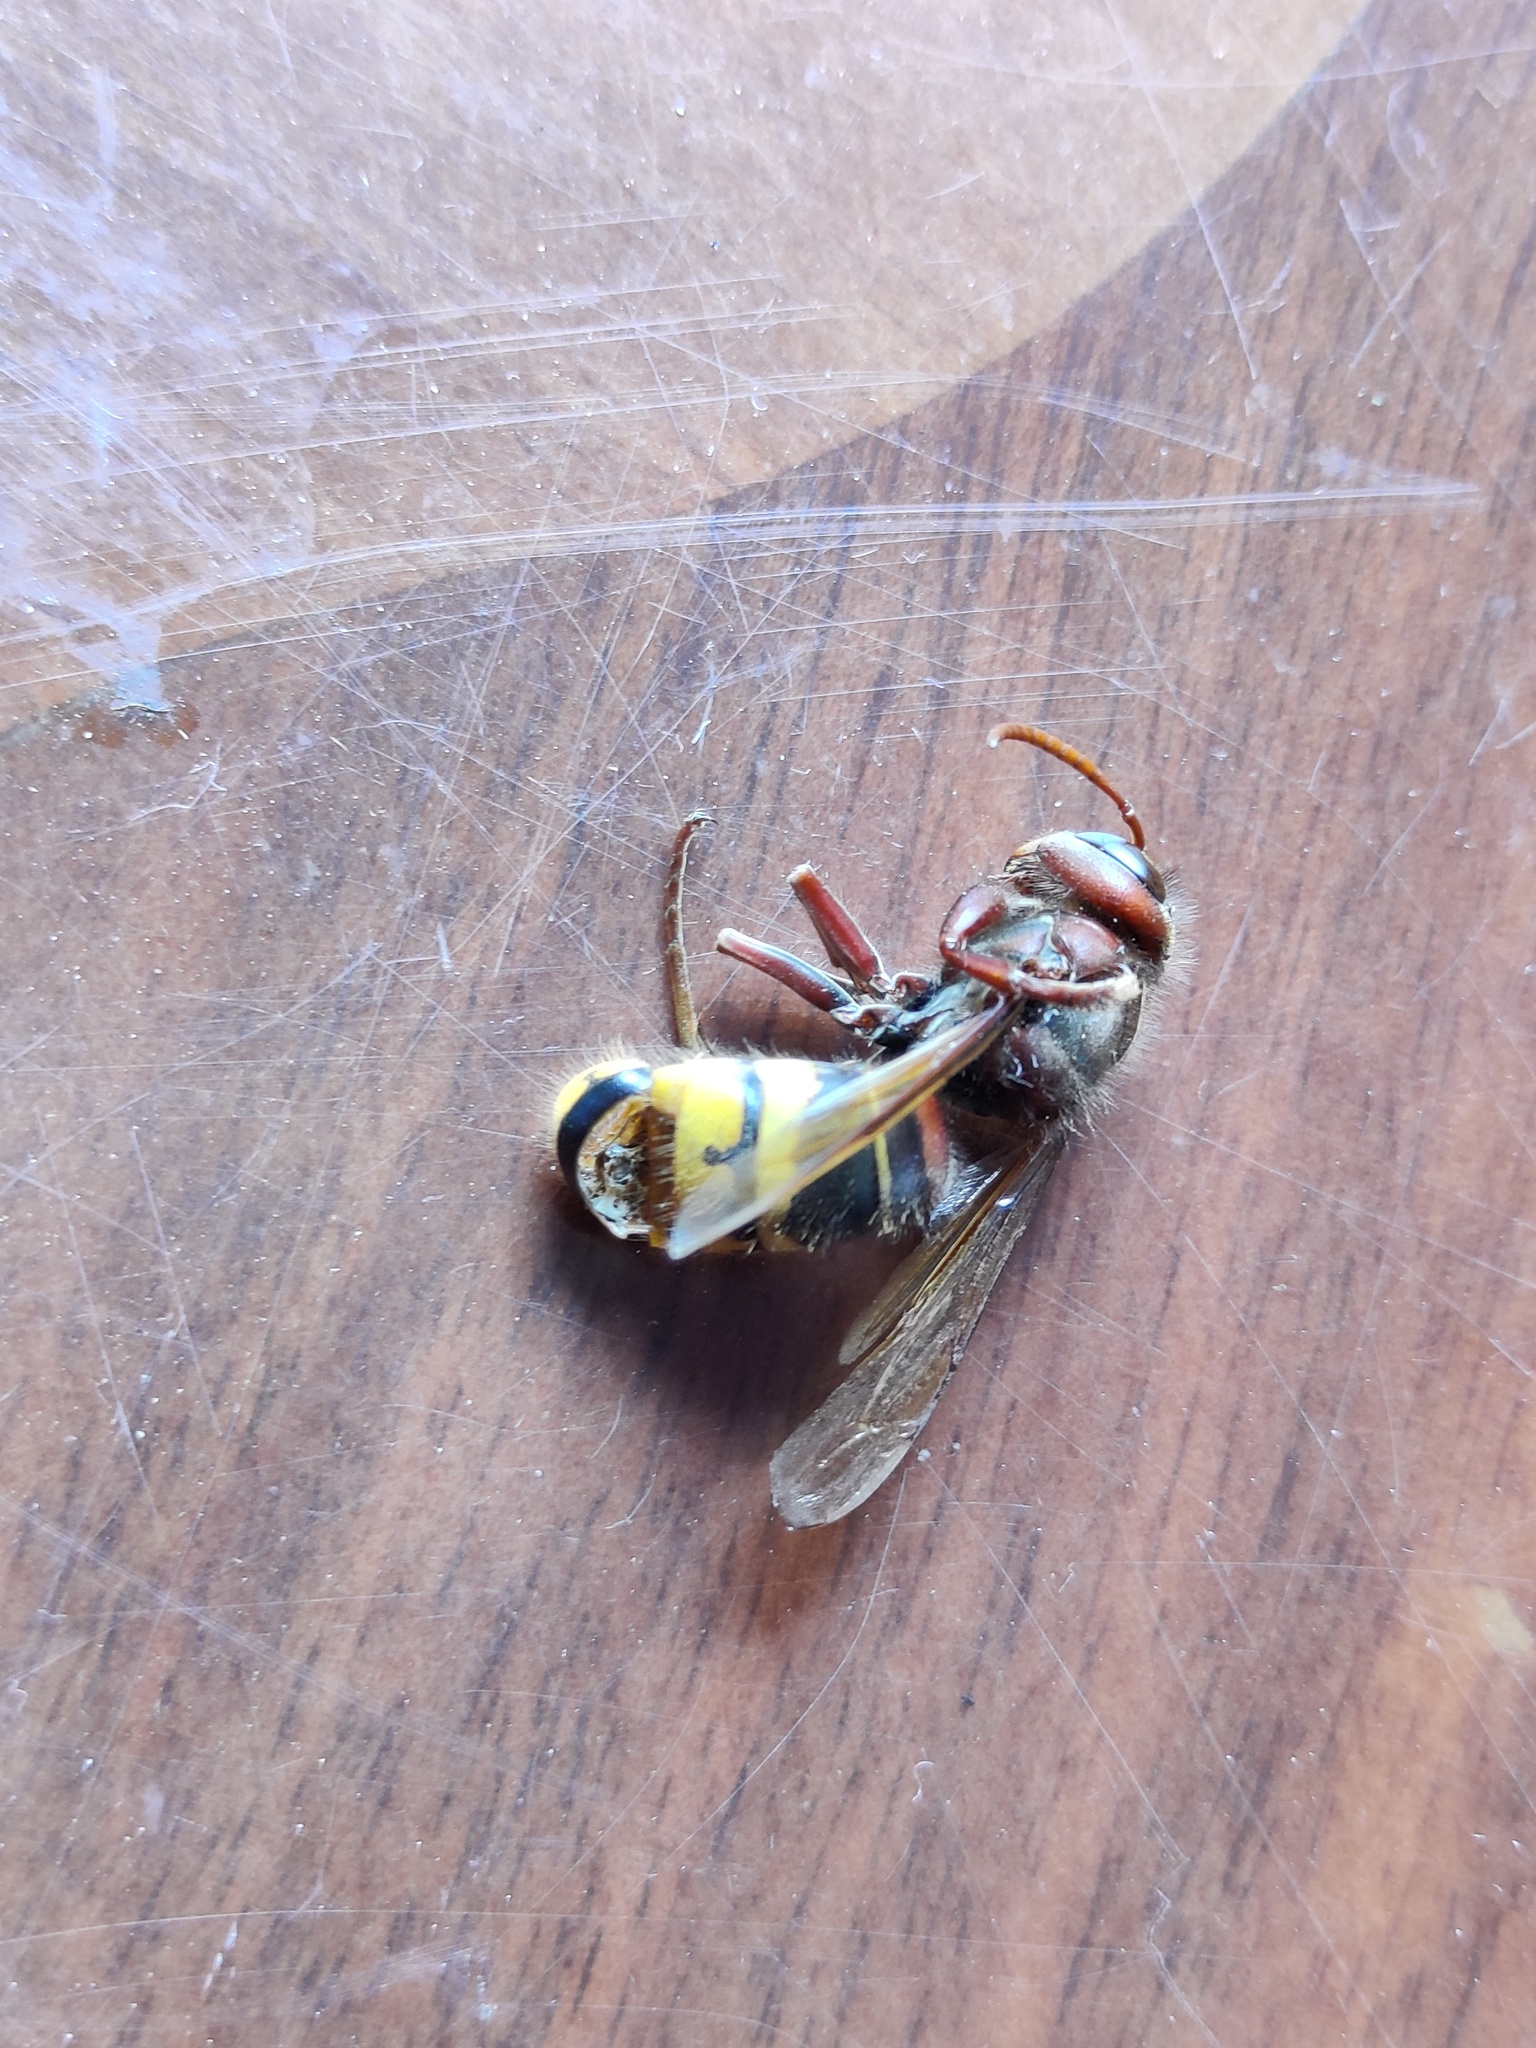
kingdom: Animalia
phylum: Arthropoda
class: Insecta
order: Hymenoptera
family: Vespidae
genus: Vespa
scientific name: Vespa crabro
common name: Hornet
